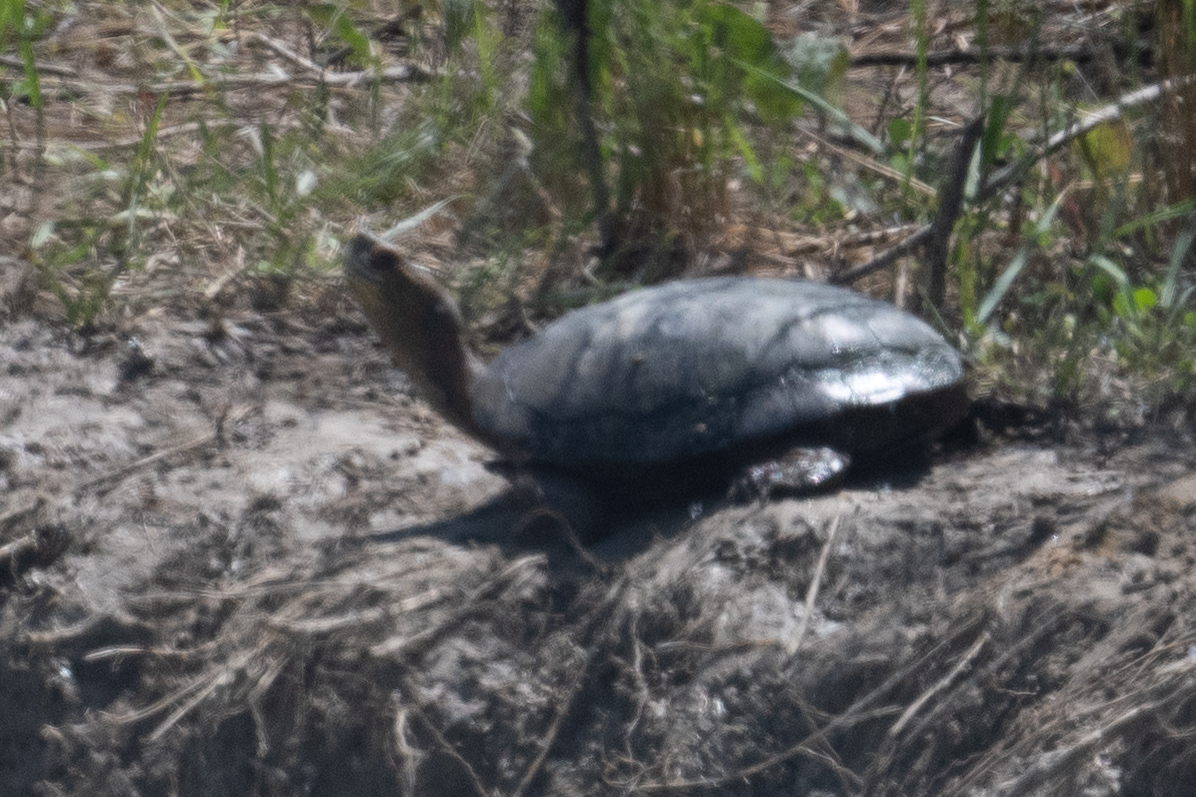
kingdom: Animalia
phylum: Chordata
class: Testudines
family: Emydidae
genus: Actinemys
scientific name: Actinemys marmorata
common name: Western pond turtle
